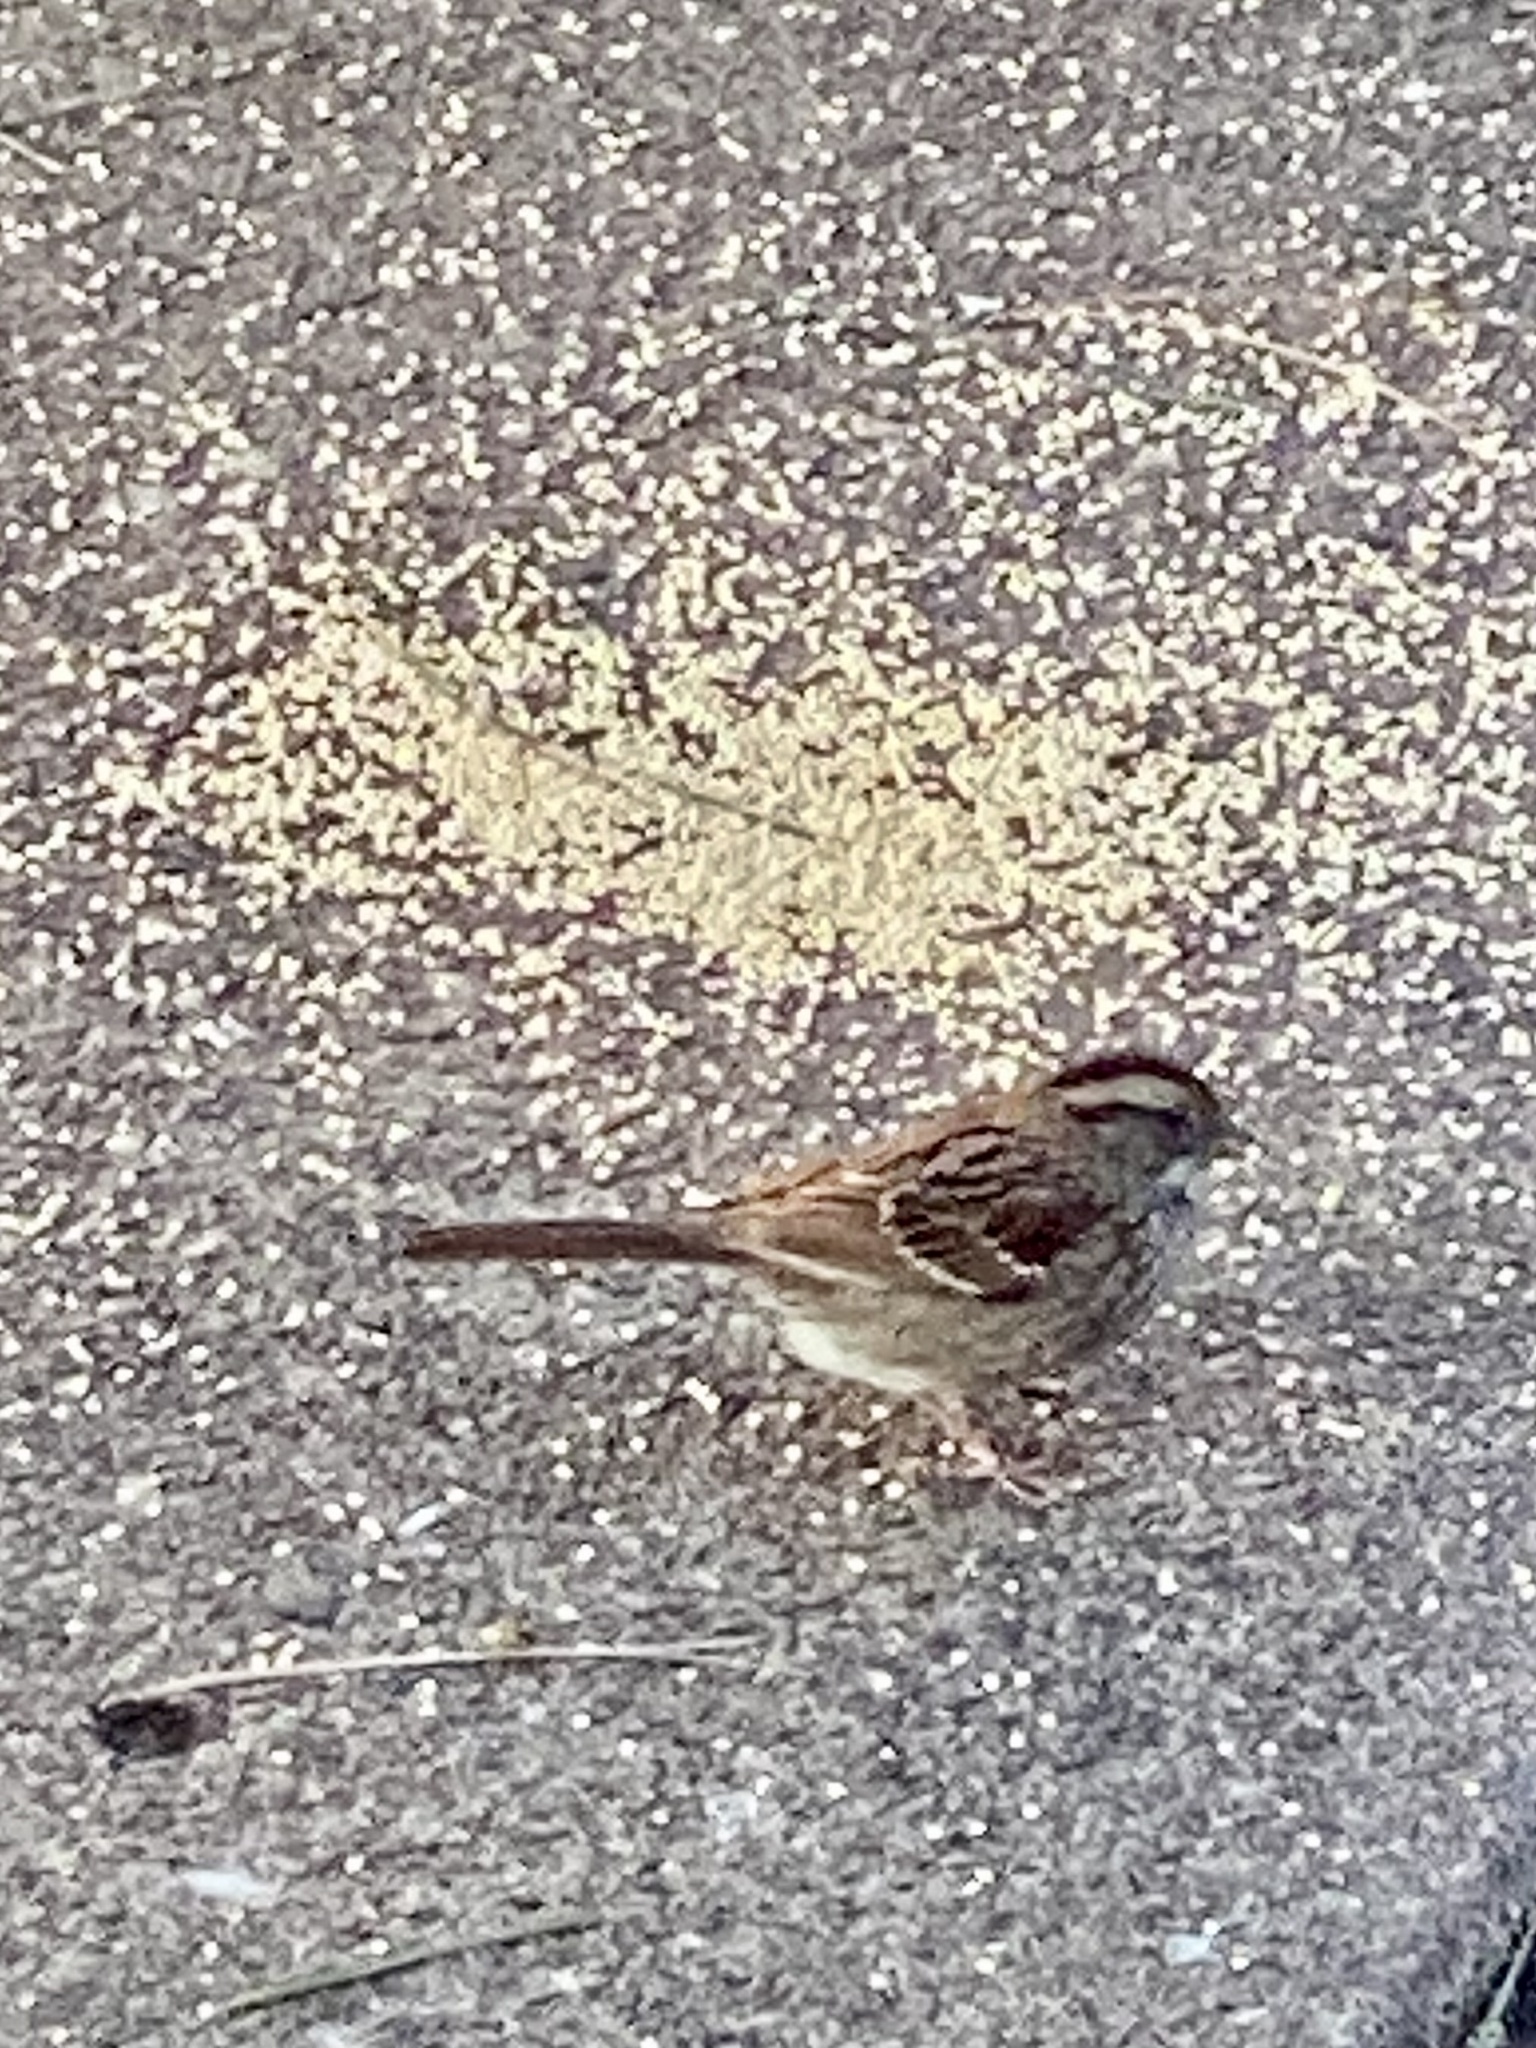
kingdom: Animalia
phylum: Chordata
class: Aves
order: Passeriformes
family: Passerellidae
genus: Zonotrichia
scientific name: Zonotrichia albicollis
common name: White-throated sparrow
